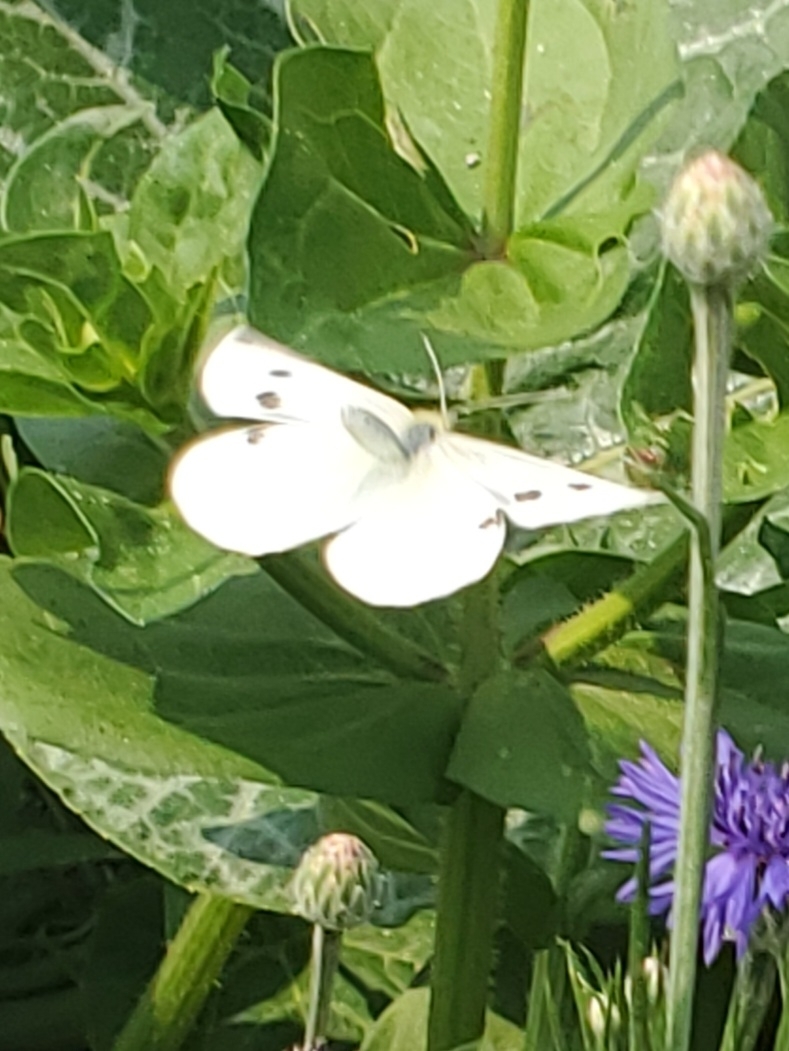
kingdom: Animalia
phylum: Arthropoda
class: Insecta
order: Lepidoptera
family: Pieridae
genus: Pieris
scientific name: Pieris rapae
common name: Small white
